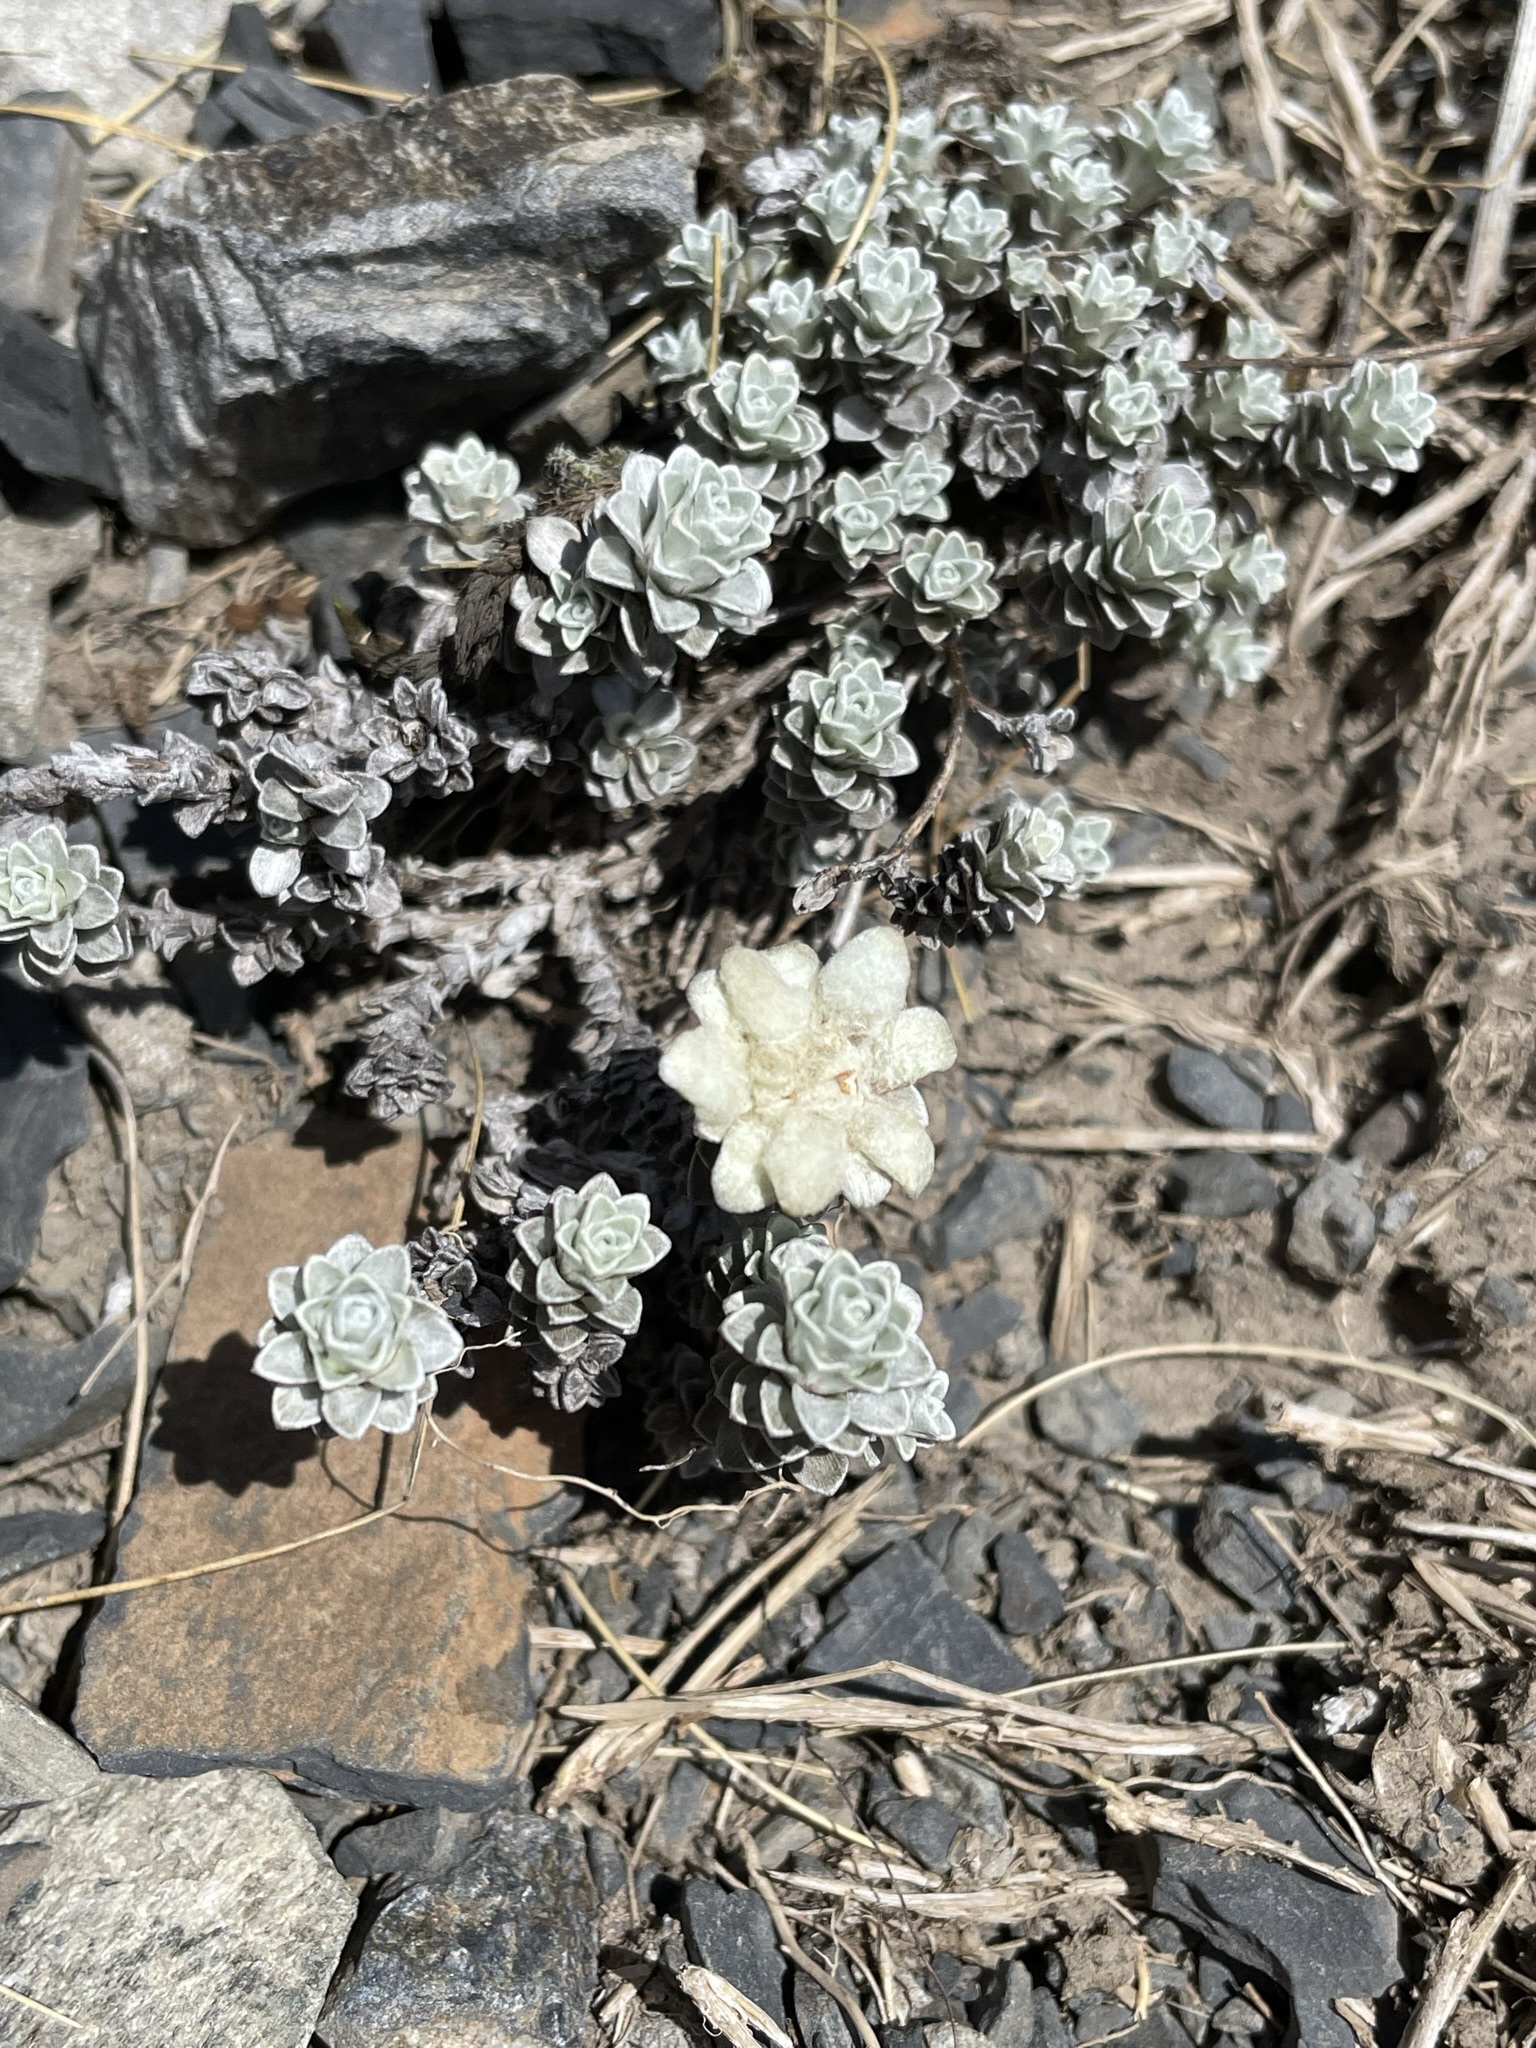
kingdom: Plantae
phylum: Tracheophyta
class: Magnoliopsida
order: Asterales
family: Asteraceae
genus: Leucogenes
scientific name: Leucogenes grandiceps
